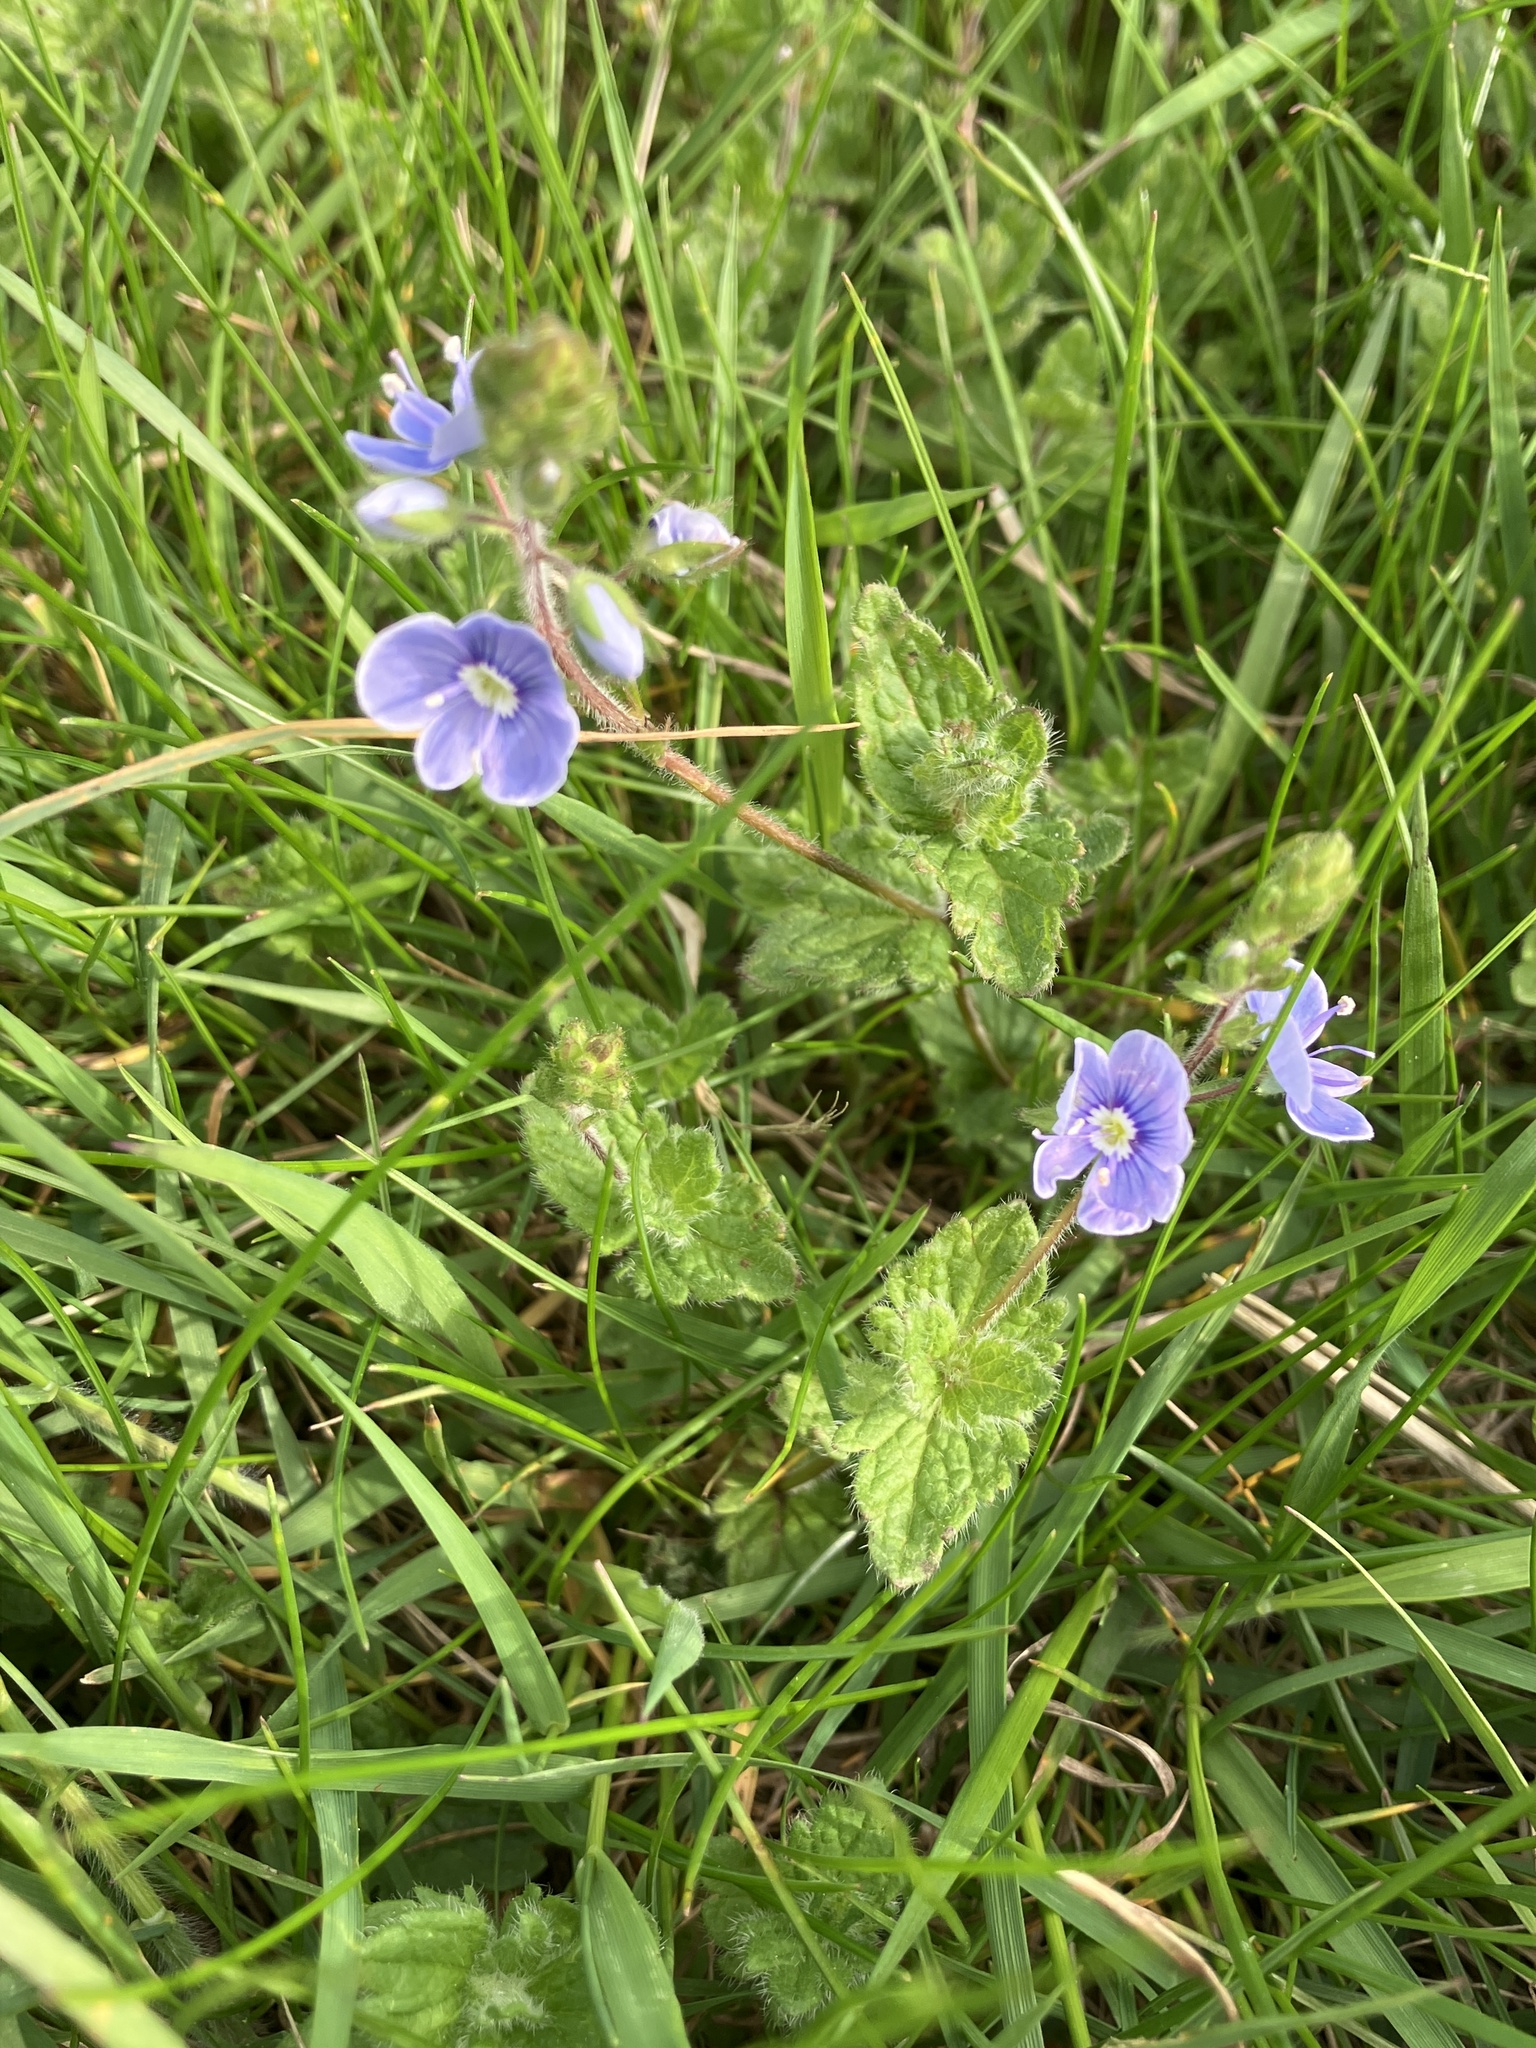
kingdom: Plantae
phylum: Tracheophyta
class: Magnoliopsida
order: Lamiales
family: Plantaginaceae
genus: Veronica
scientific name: Veronica chamaedrys
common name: Germander speedwell
